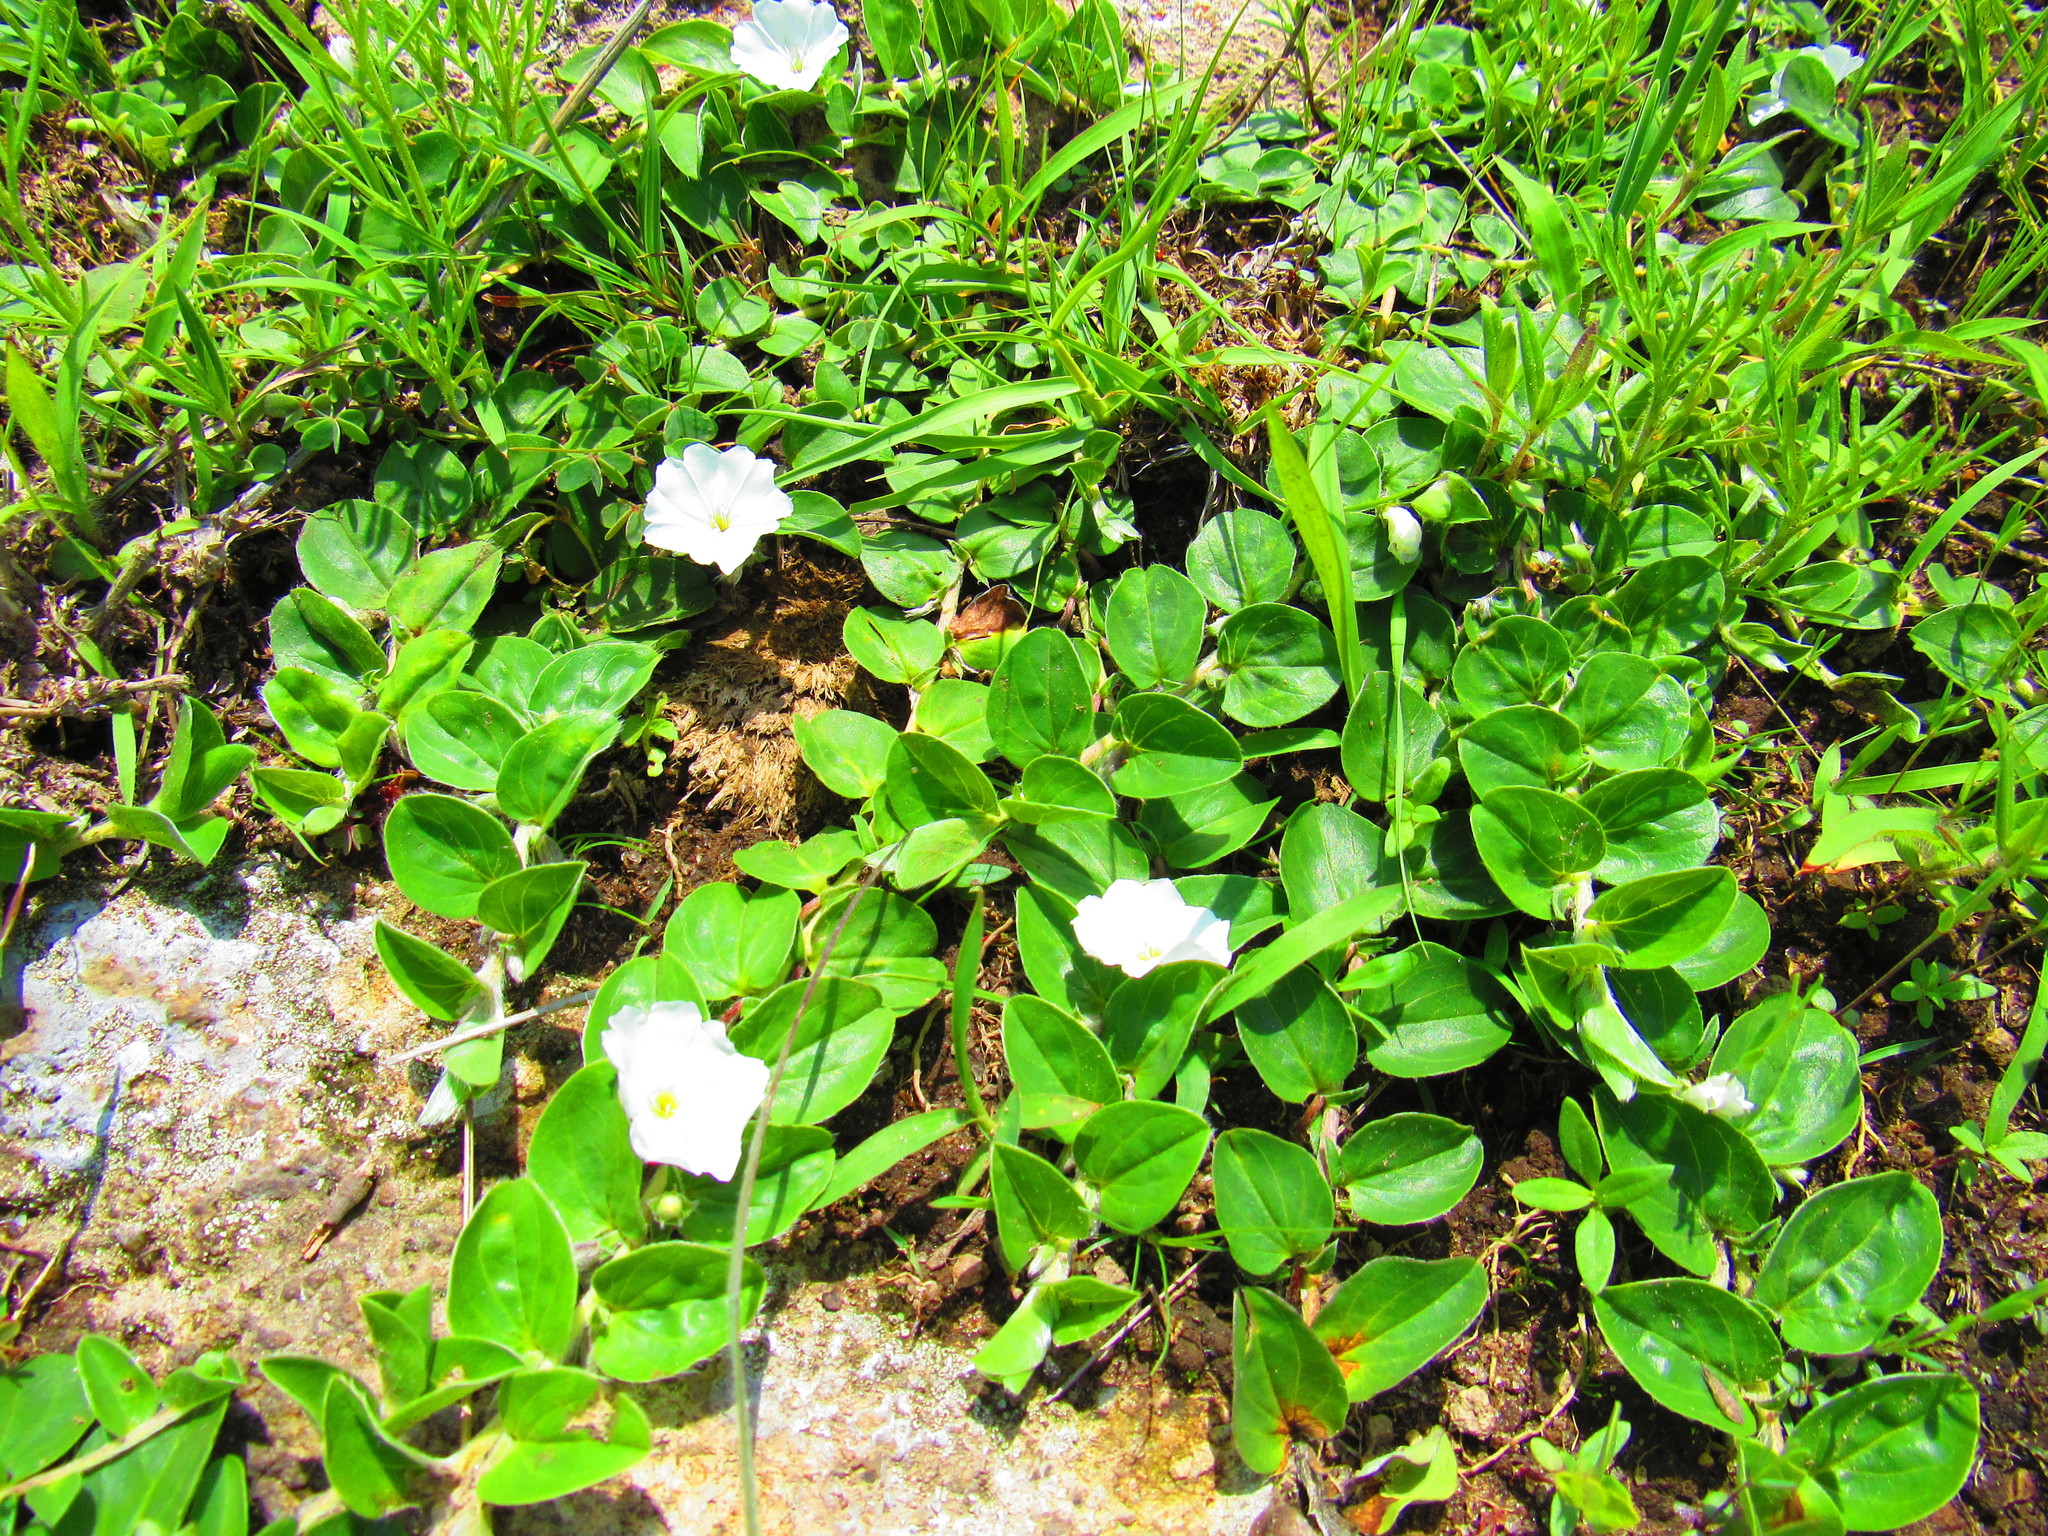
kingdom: Plantae
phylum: Tracheophyta
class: Magnoliopsida
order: Solanales
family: Convolvulaceae
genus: Evolvulus
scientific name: Evolvulus prostratus
